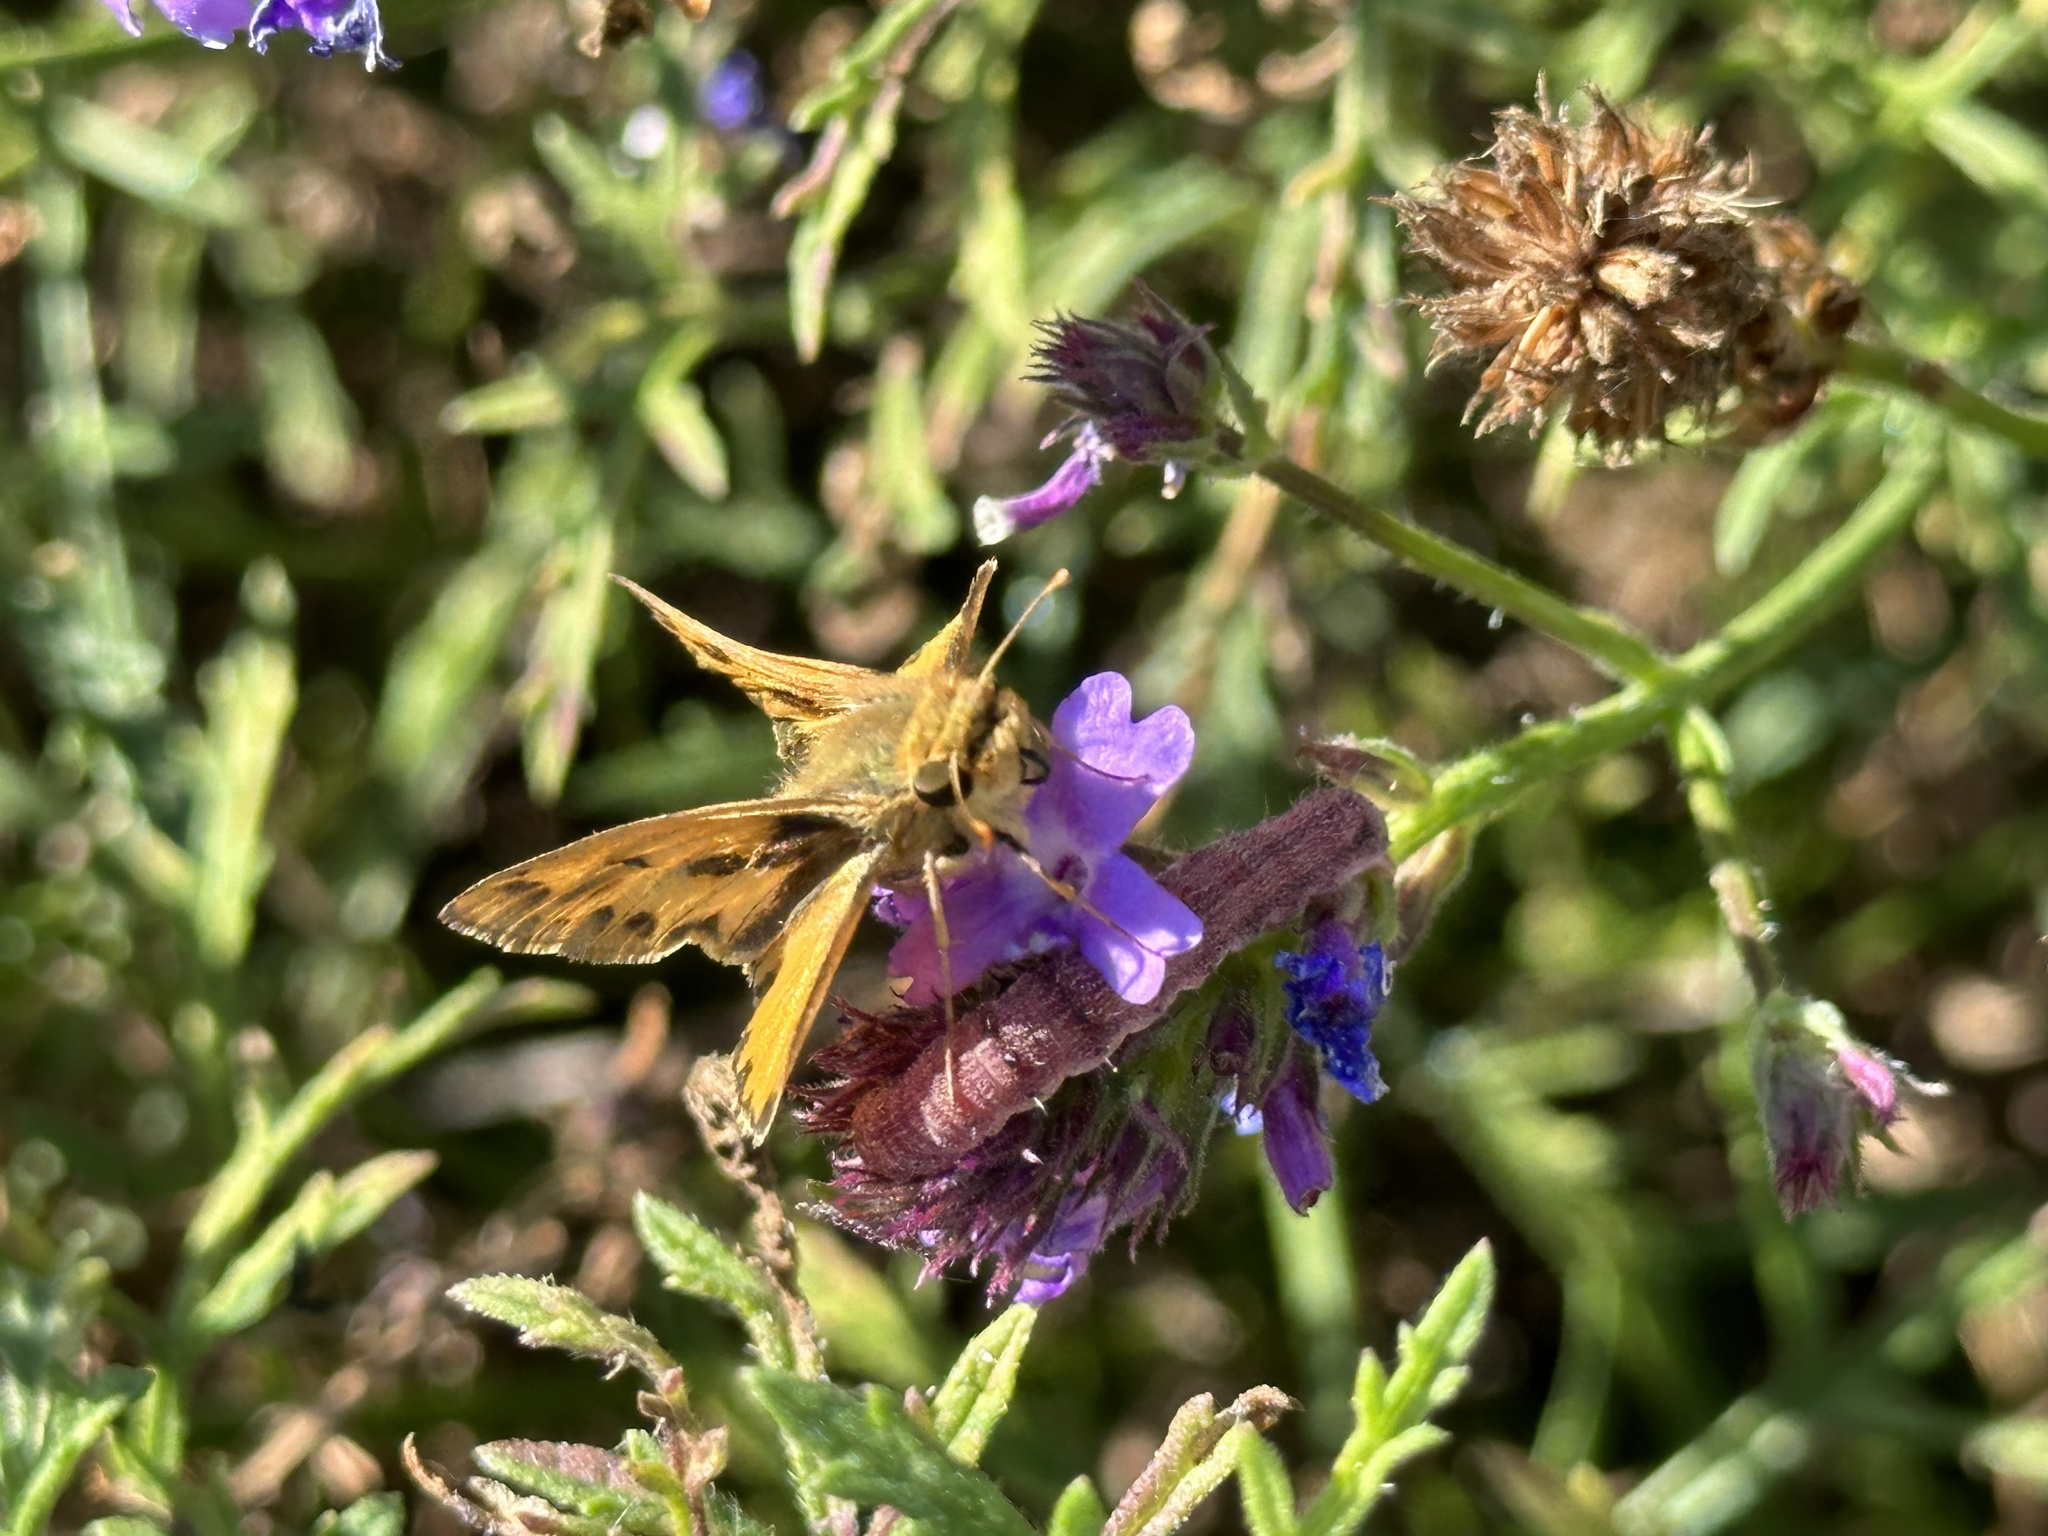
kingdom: Animalia
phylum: Arthropoda
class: Insecta
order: Lepidoptera
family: Hesperiidae
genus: Hylephila
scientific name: Hylephila phyleus
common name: Fiery skipper
